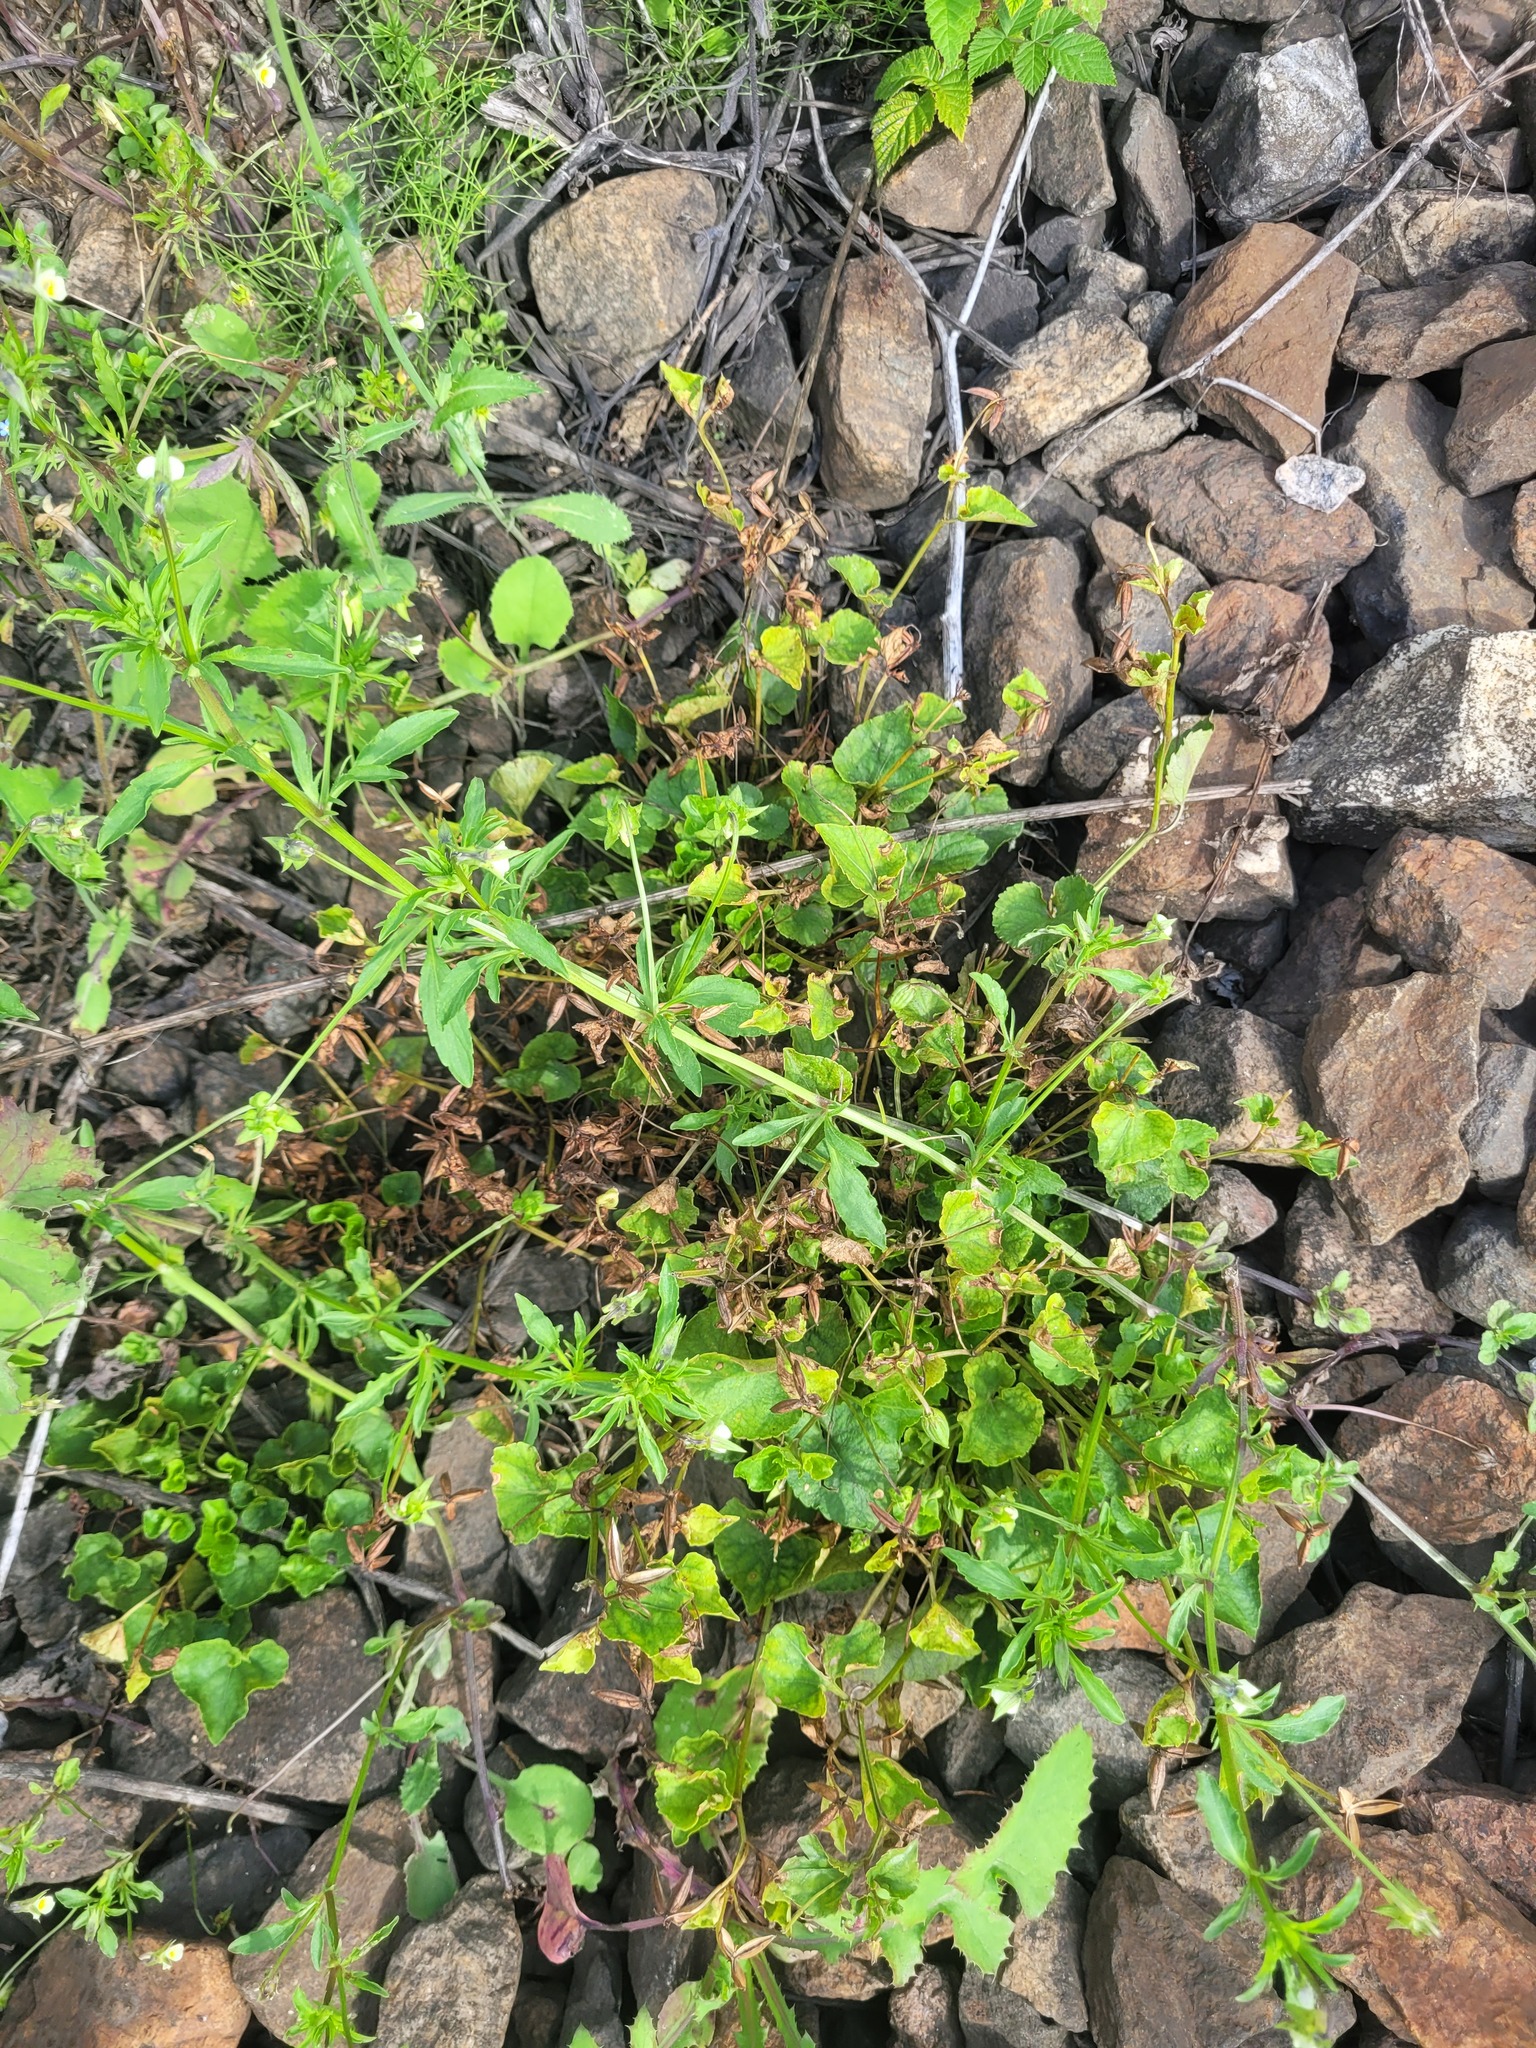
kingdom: Plantae
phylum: Tracheophyta
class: Magnoliopsida
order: Malpighiales
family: Violaceae
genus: Viola
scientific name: Viola riviniana
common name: Common dog-violet
